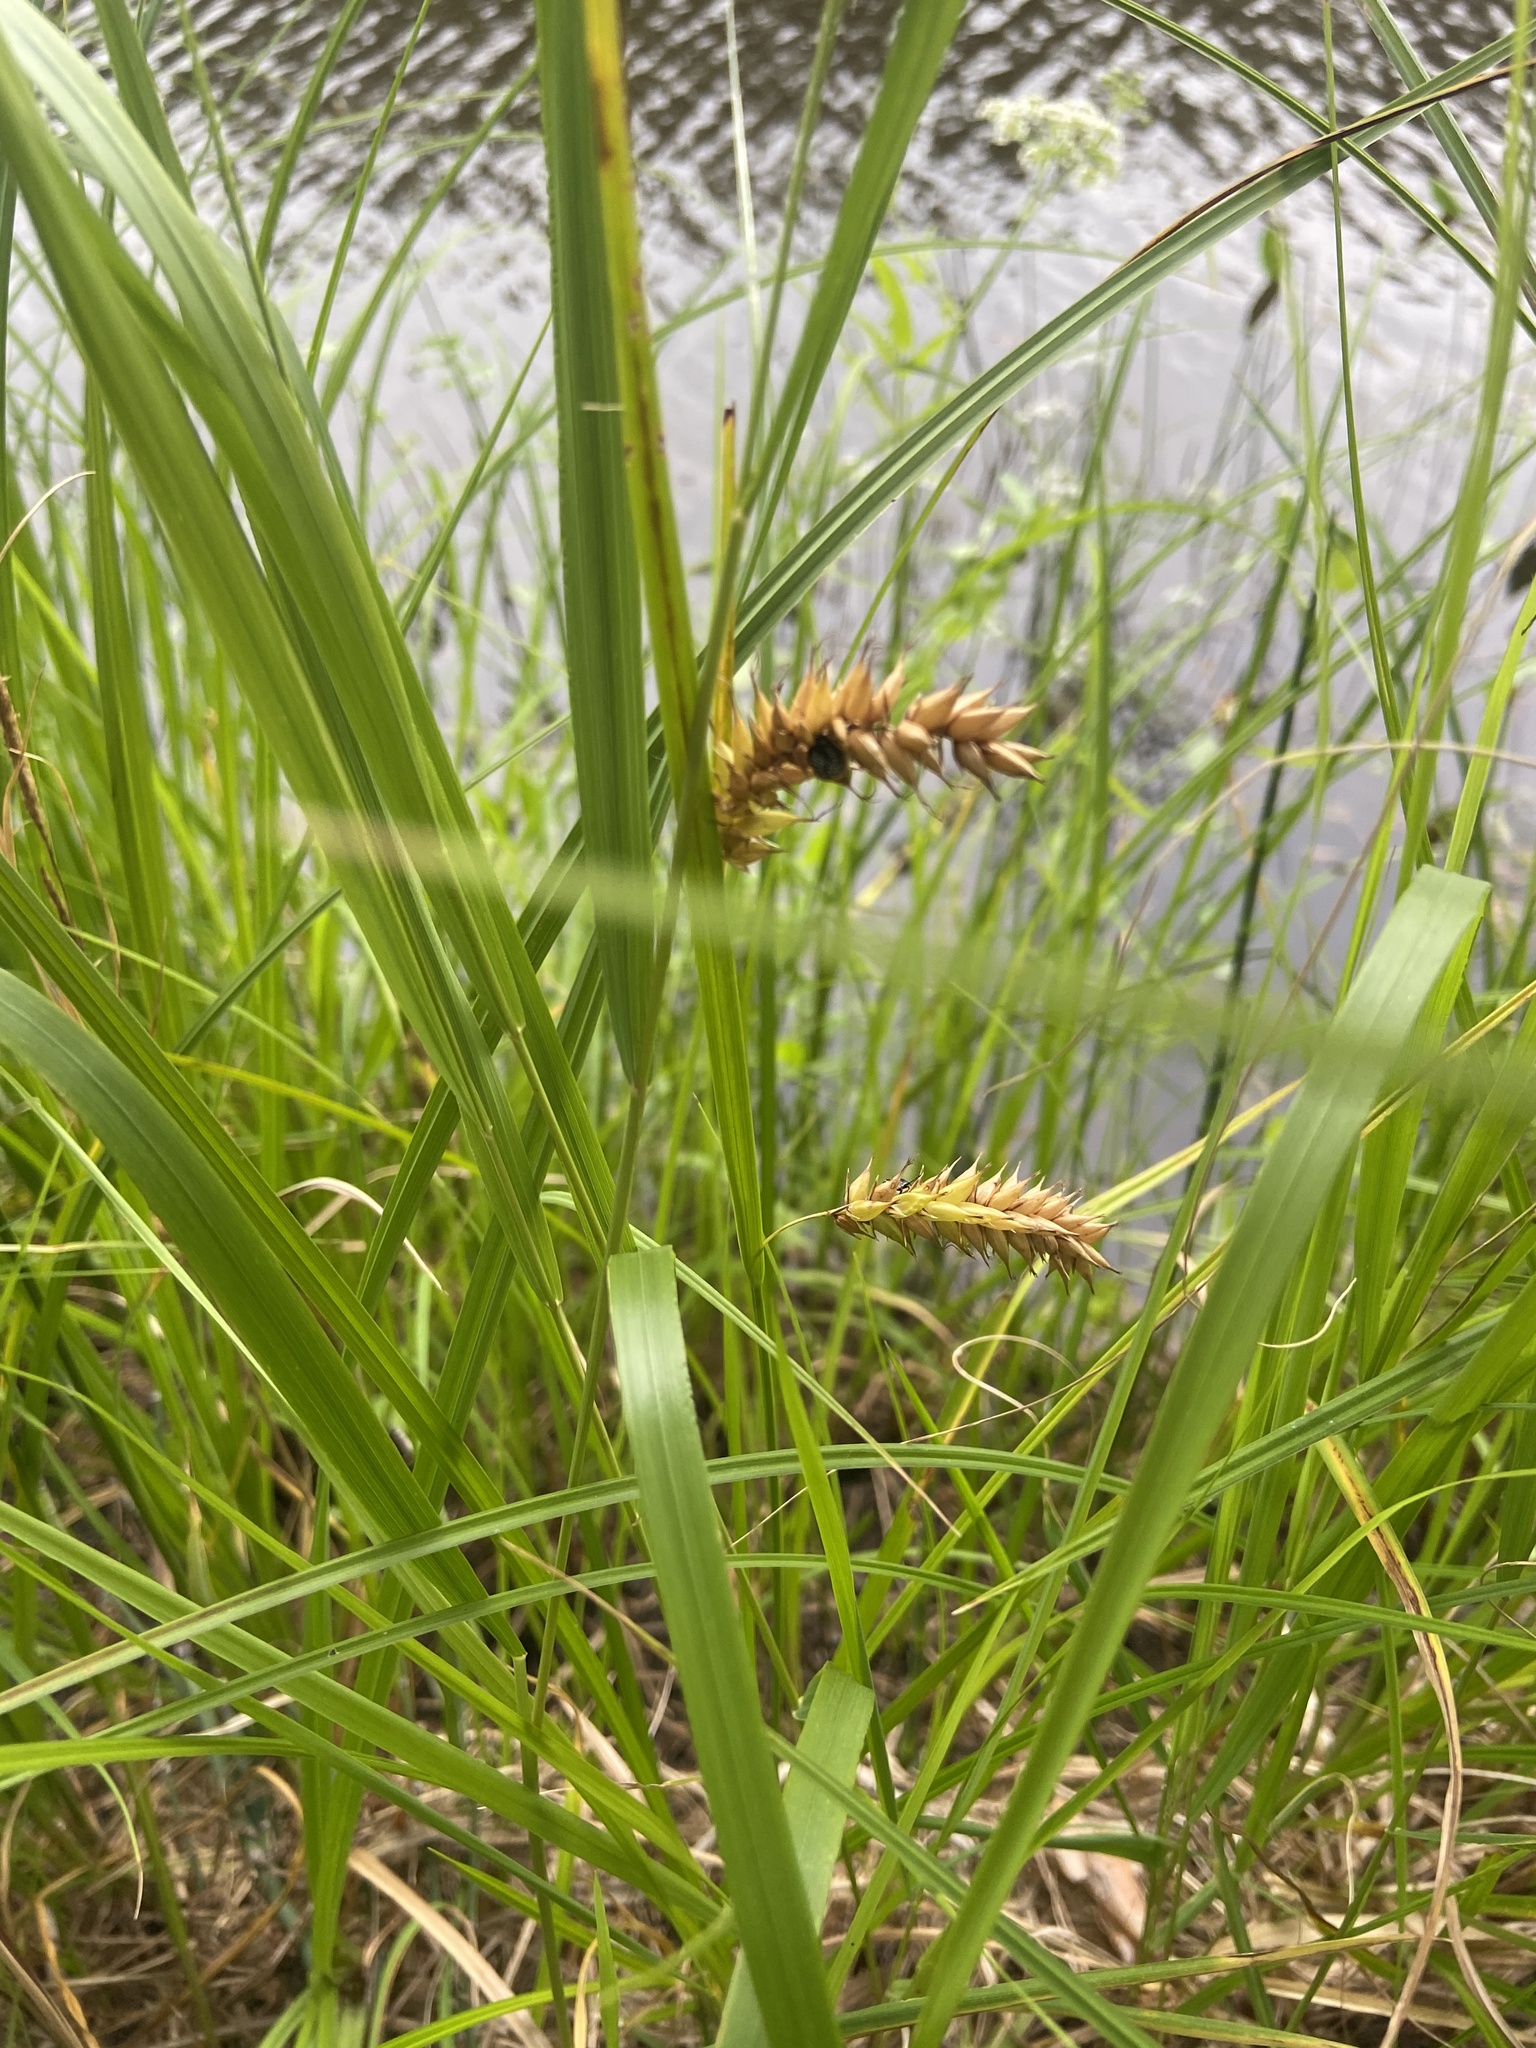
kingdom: Plantae
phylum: Tracheophyta
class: Liliopsida
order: Poales
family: Cyperaceae
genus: Carex
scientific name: Carex vesicaria
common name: Bladder-sedge
